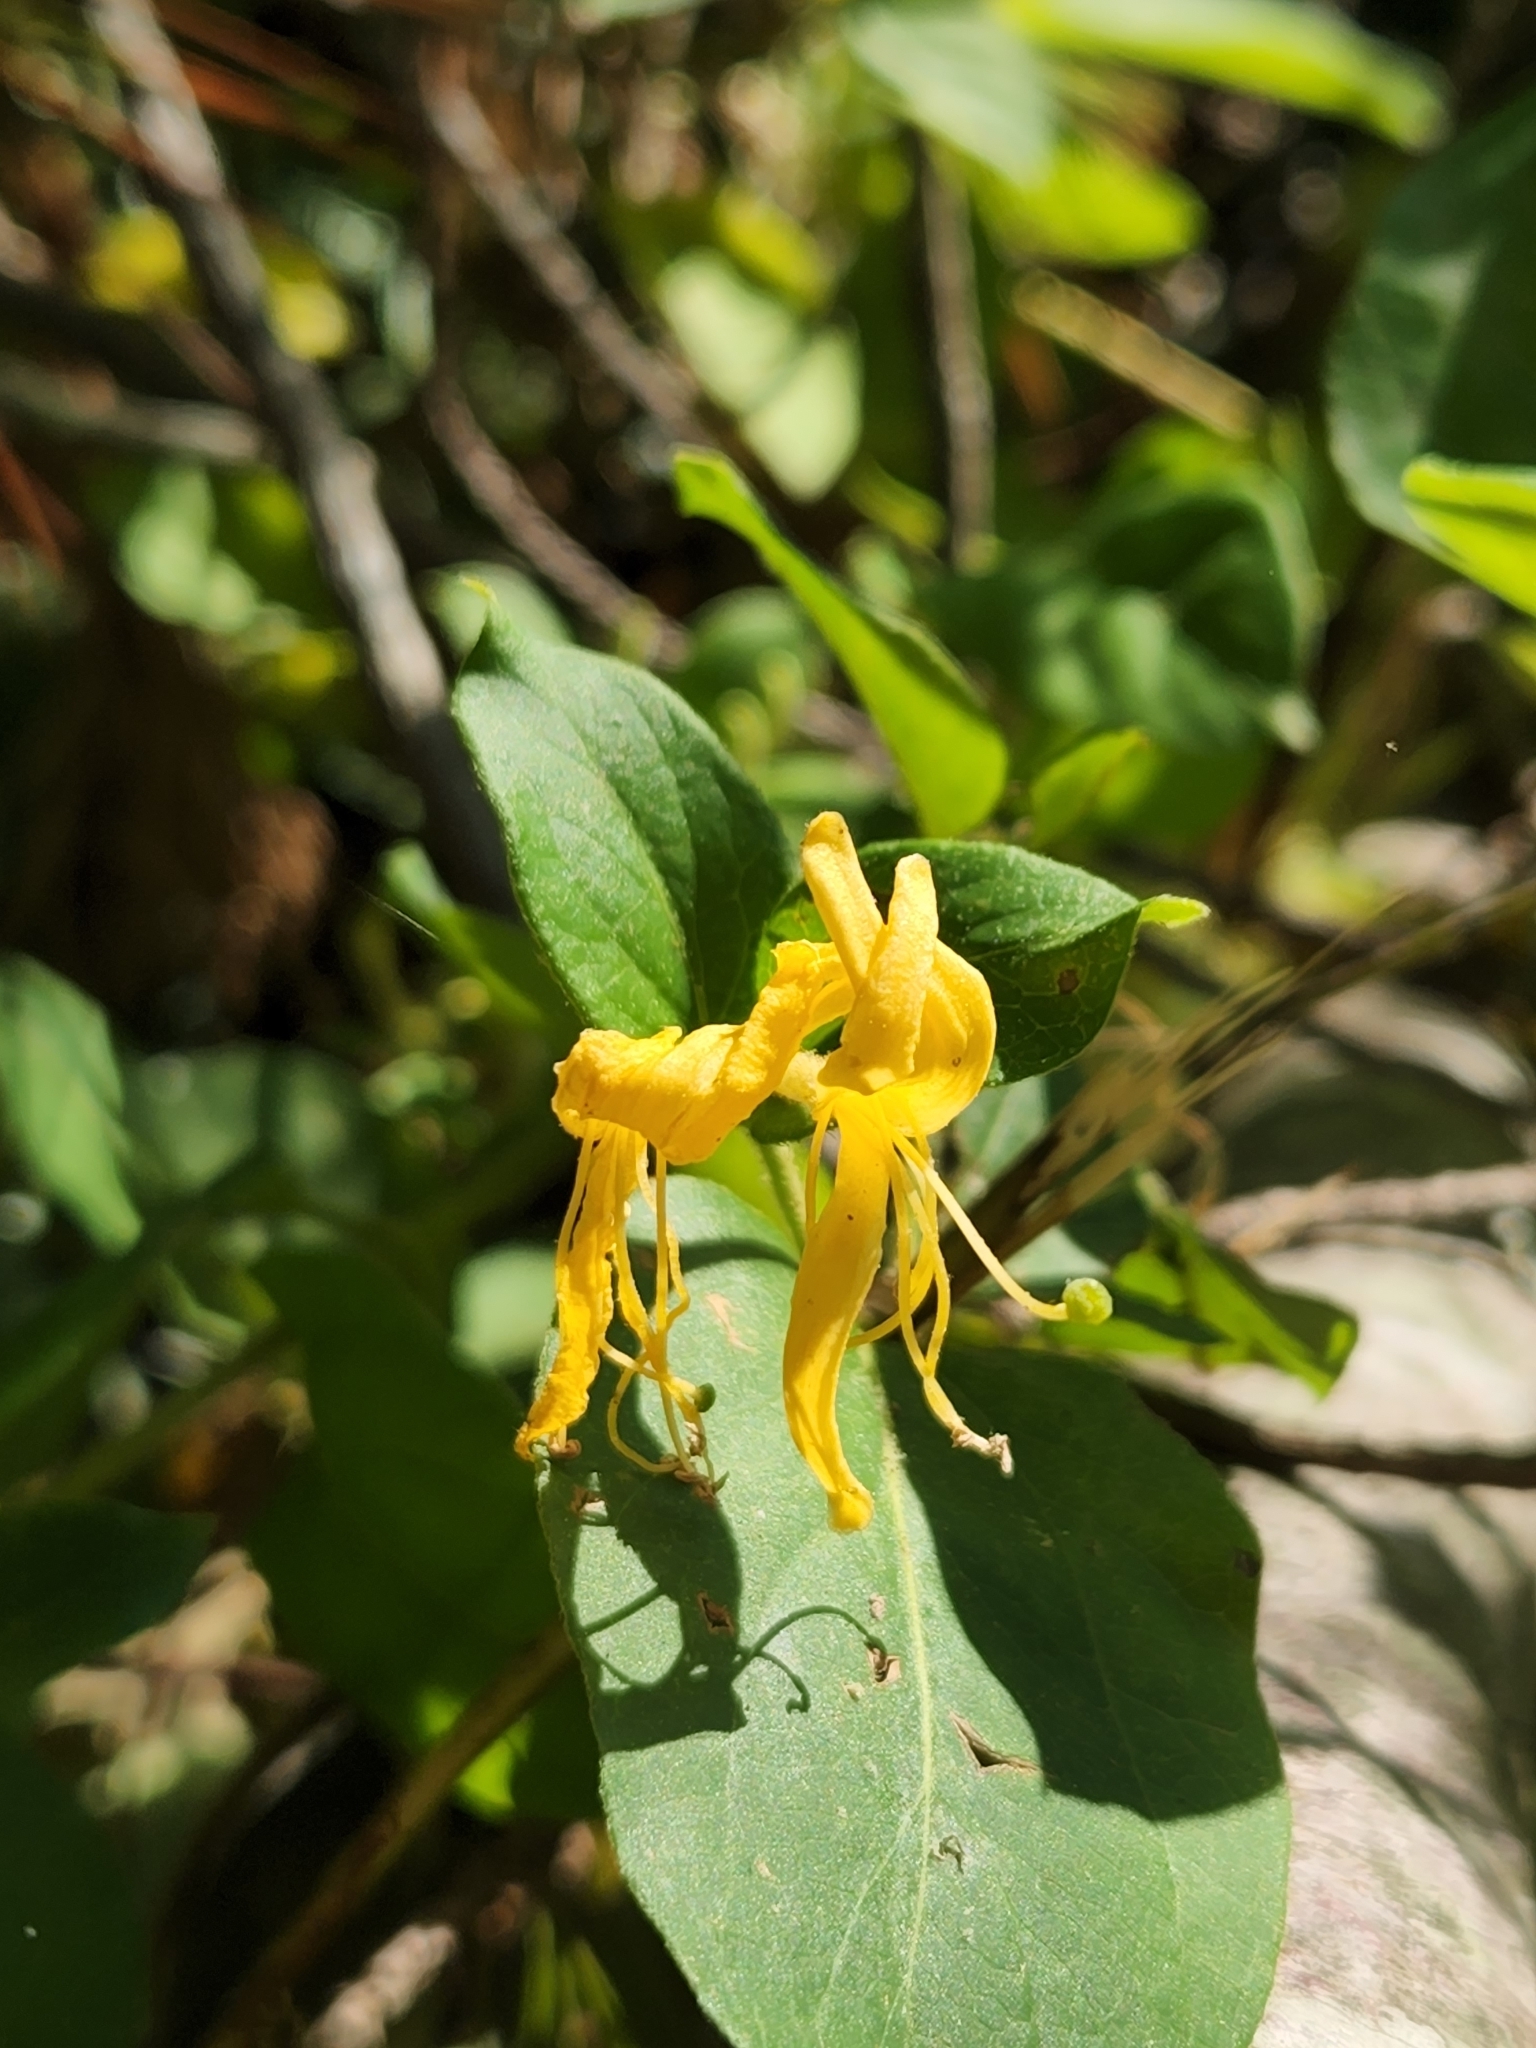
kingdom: Plantae
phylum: Tracheophyta
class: Magnoliopsida
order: Dipsacales
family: Caprifoliaceae
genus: Lonicera
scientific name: Lonicera japonica
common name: Japanese honeysuckle
